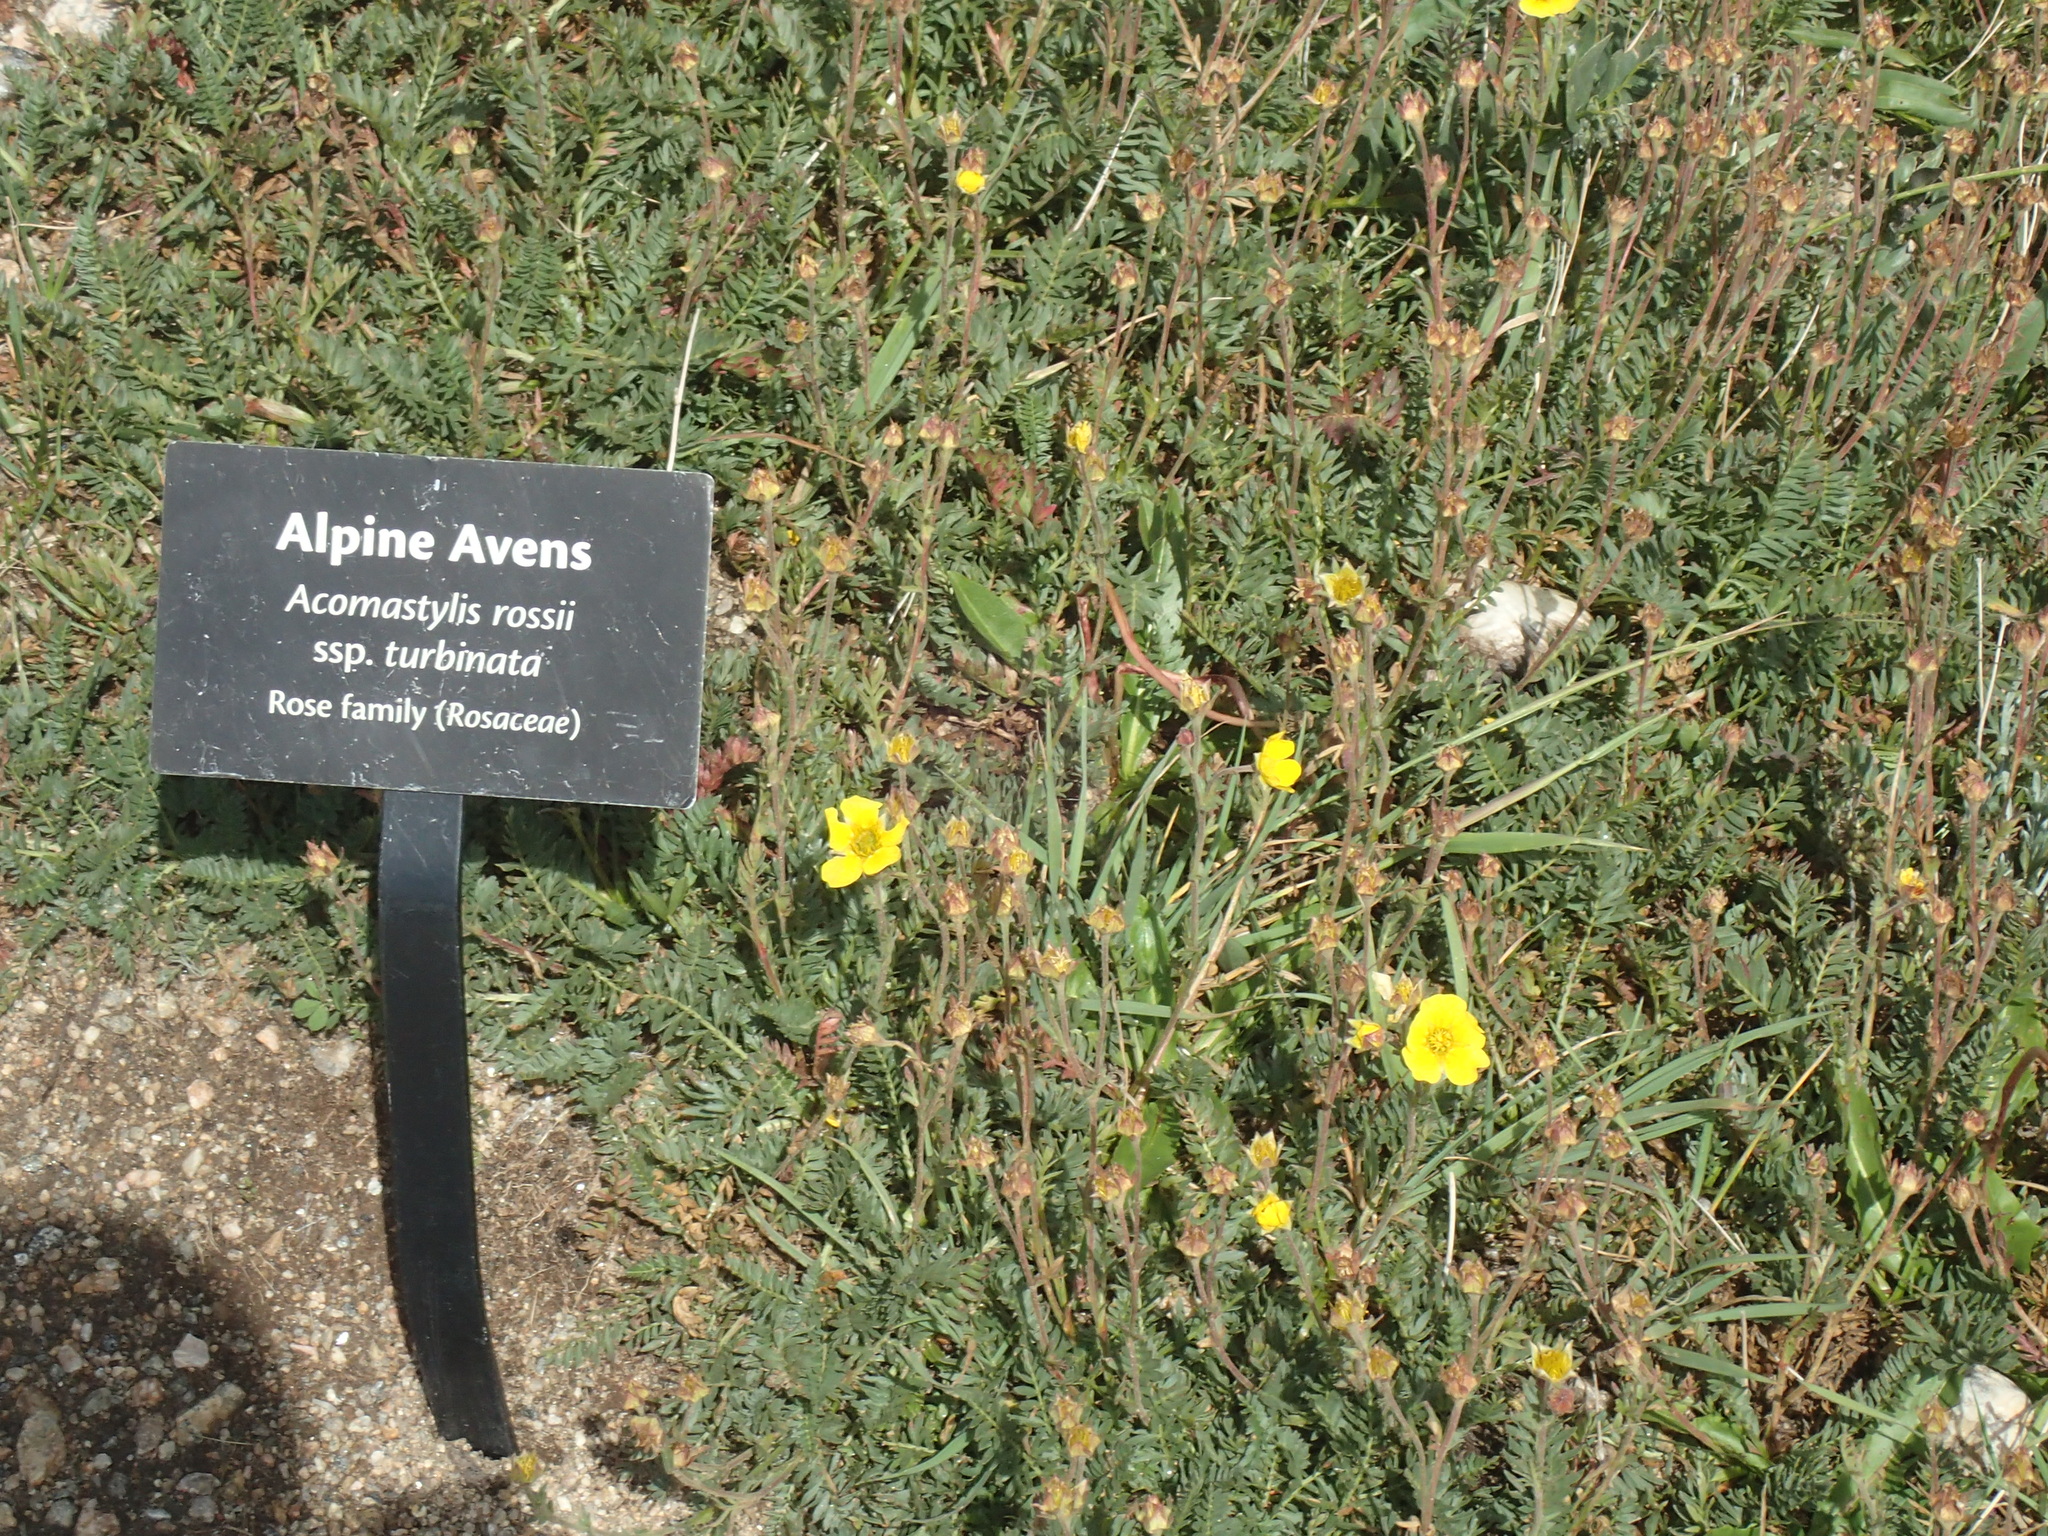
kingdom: Plantae
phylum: Tracheophyta
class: Magnoliopsida
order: Rosales
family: Rosaceae
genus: Geum
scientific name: Geum rossii
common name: Alpine avens
